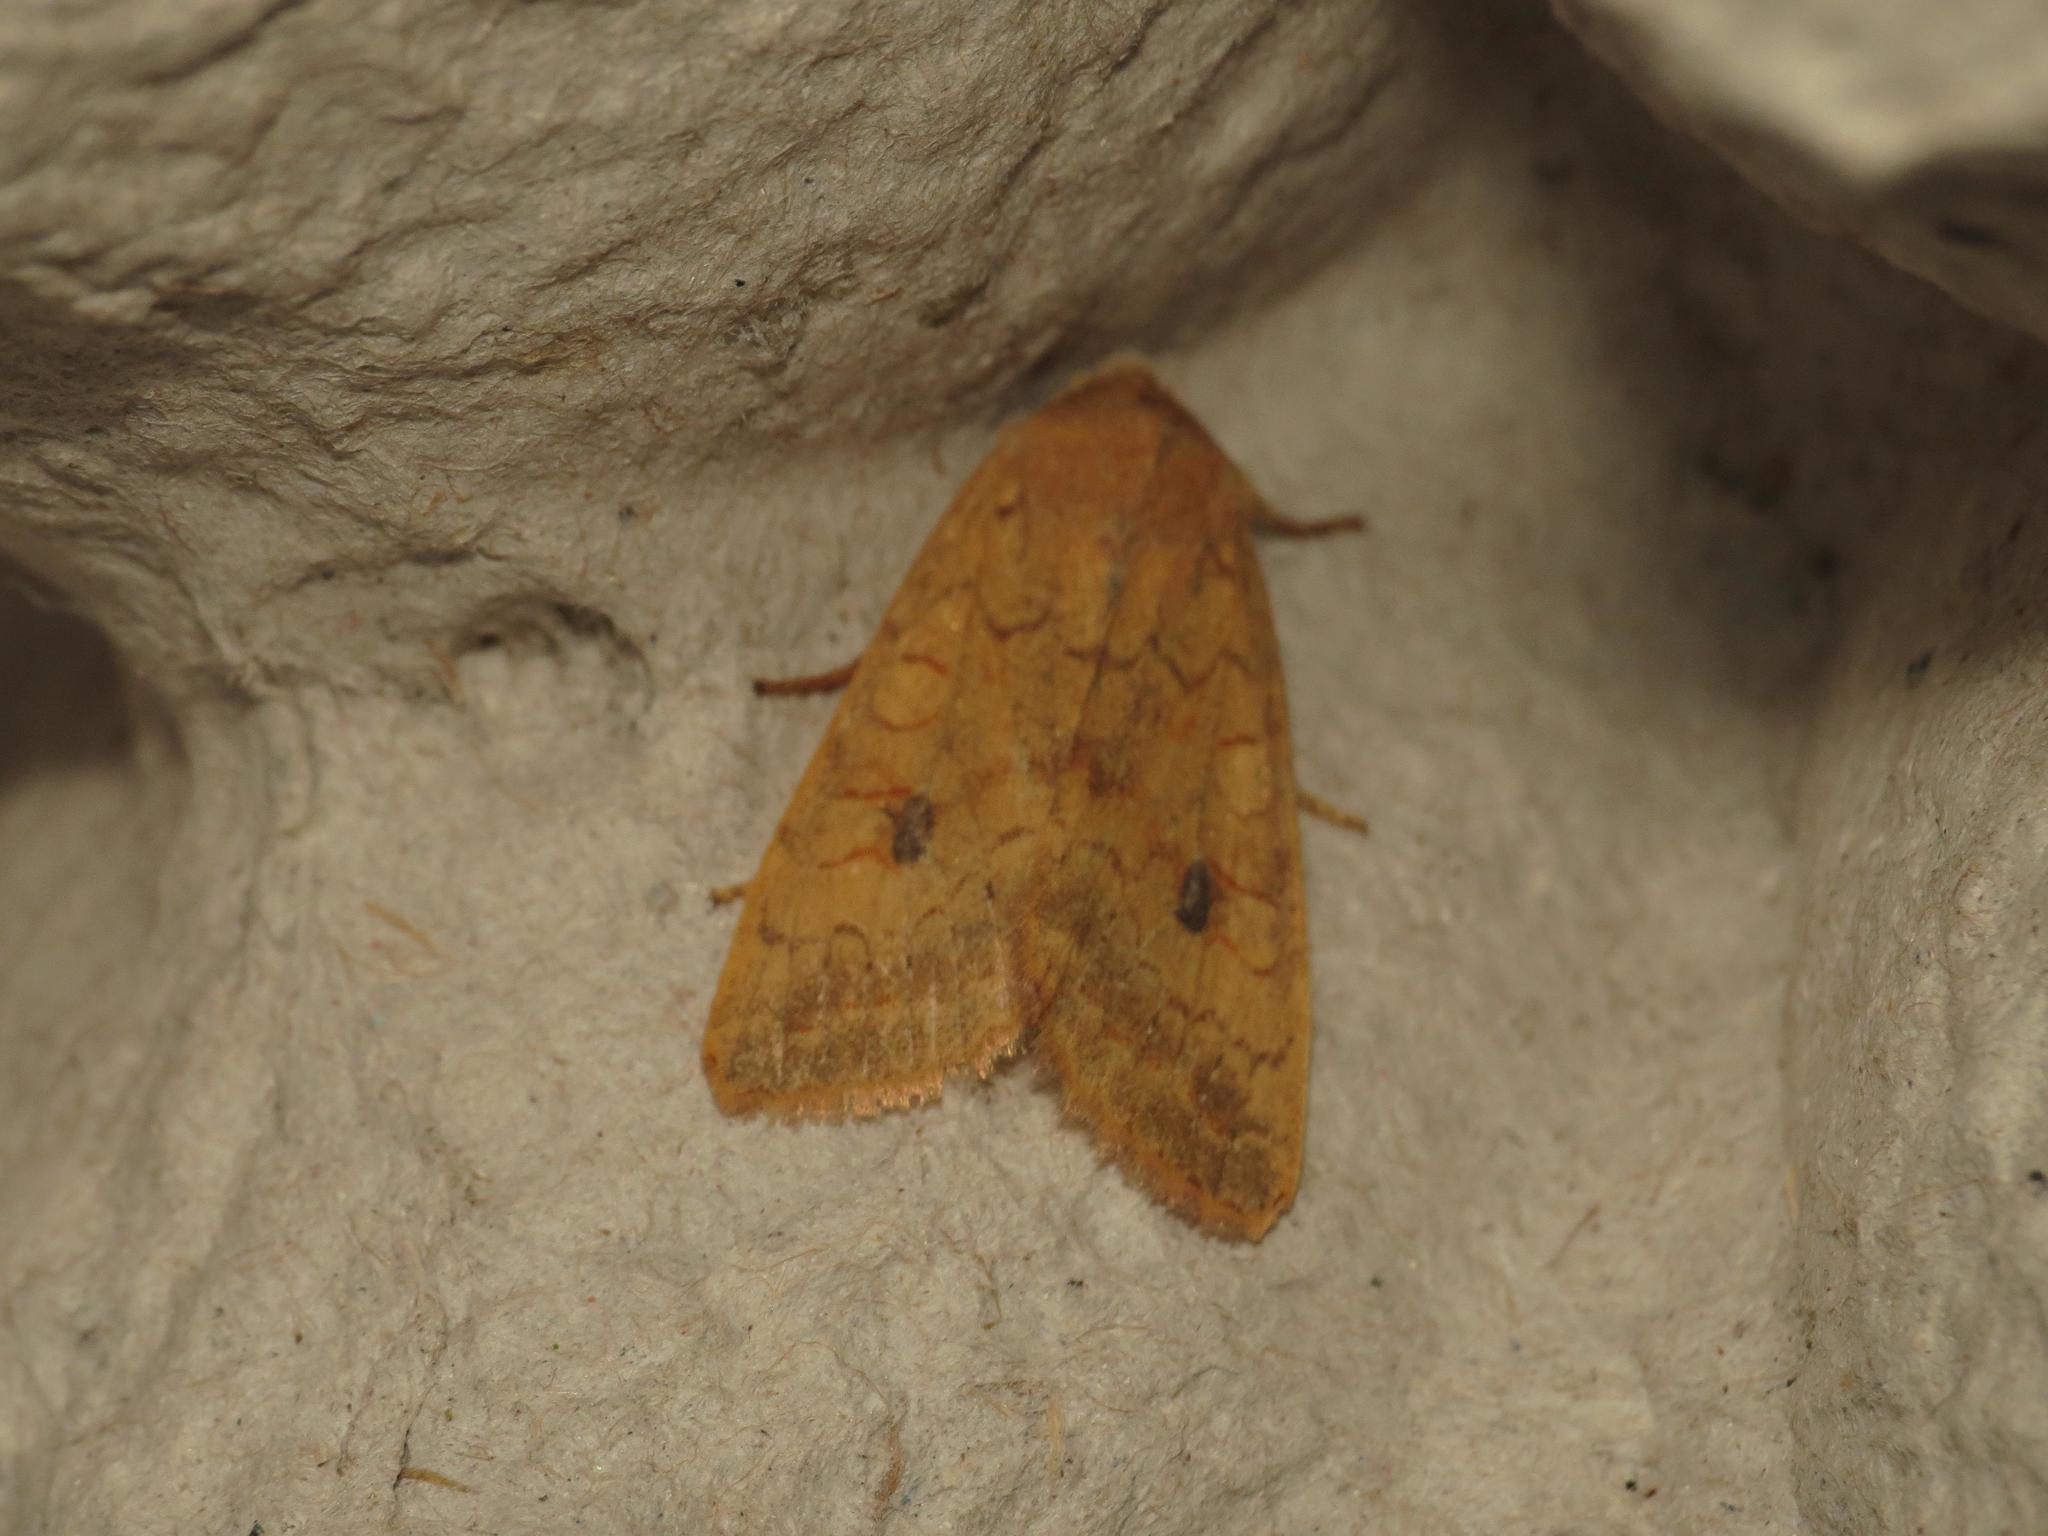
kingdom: Animalia
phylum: Arthropoda
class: Insecta
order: Lepidoptera
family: Noctuidae
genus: Agrochola
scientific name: Agrochola macilenta
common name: Yellow-line quaker
